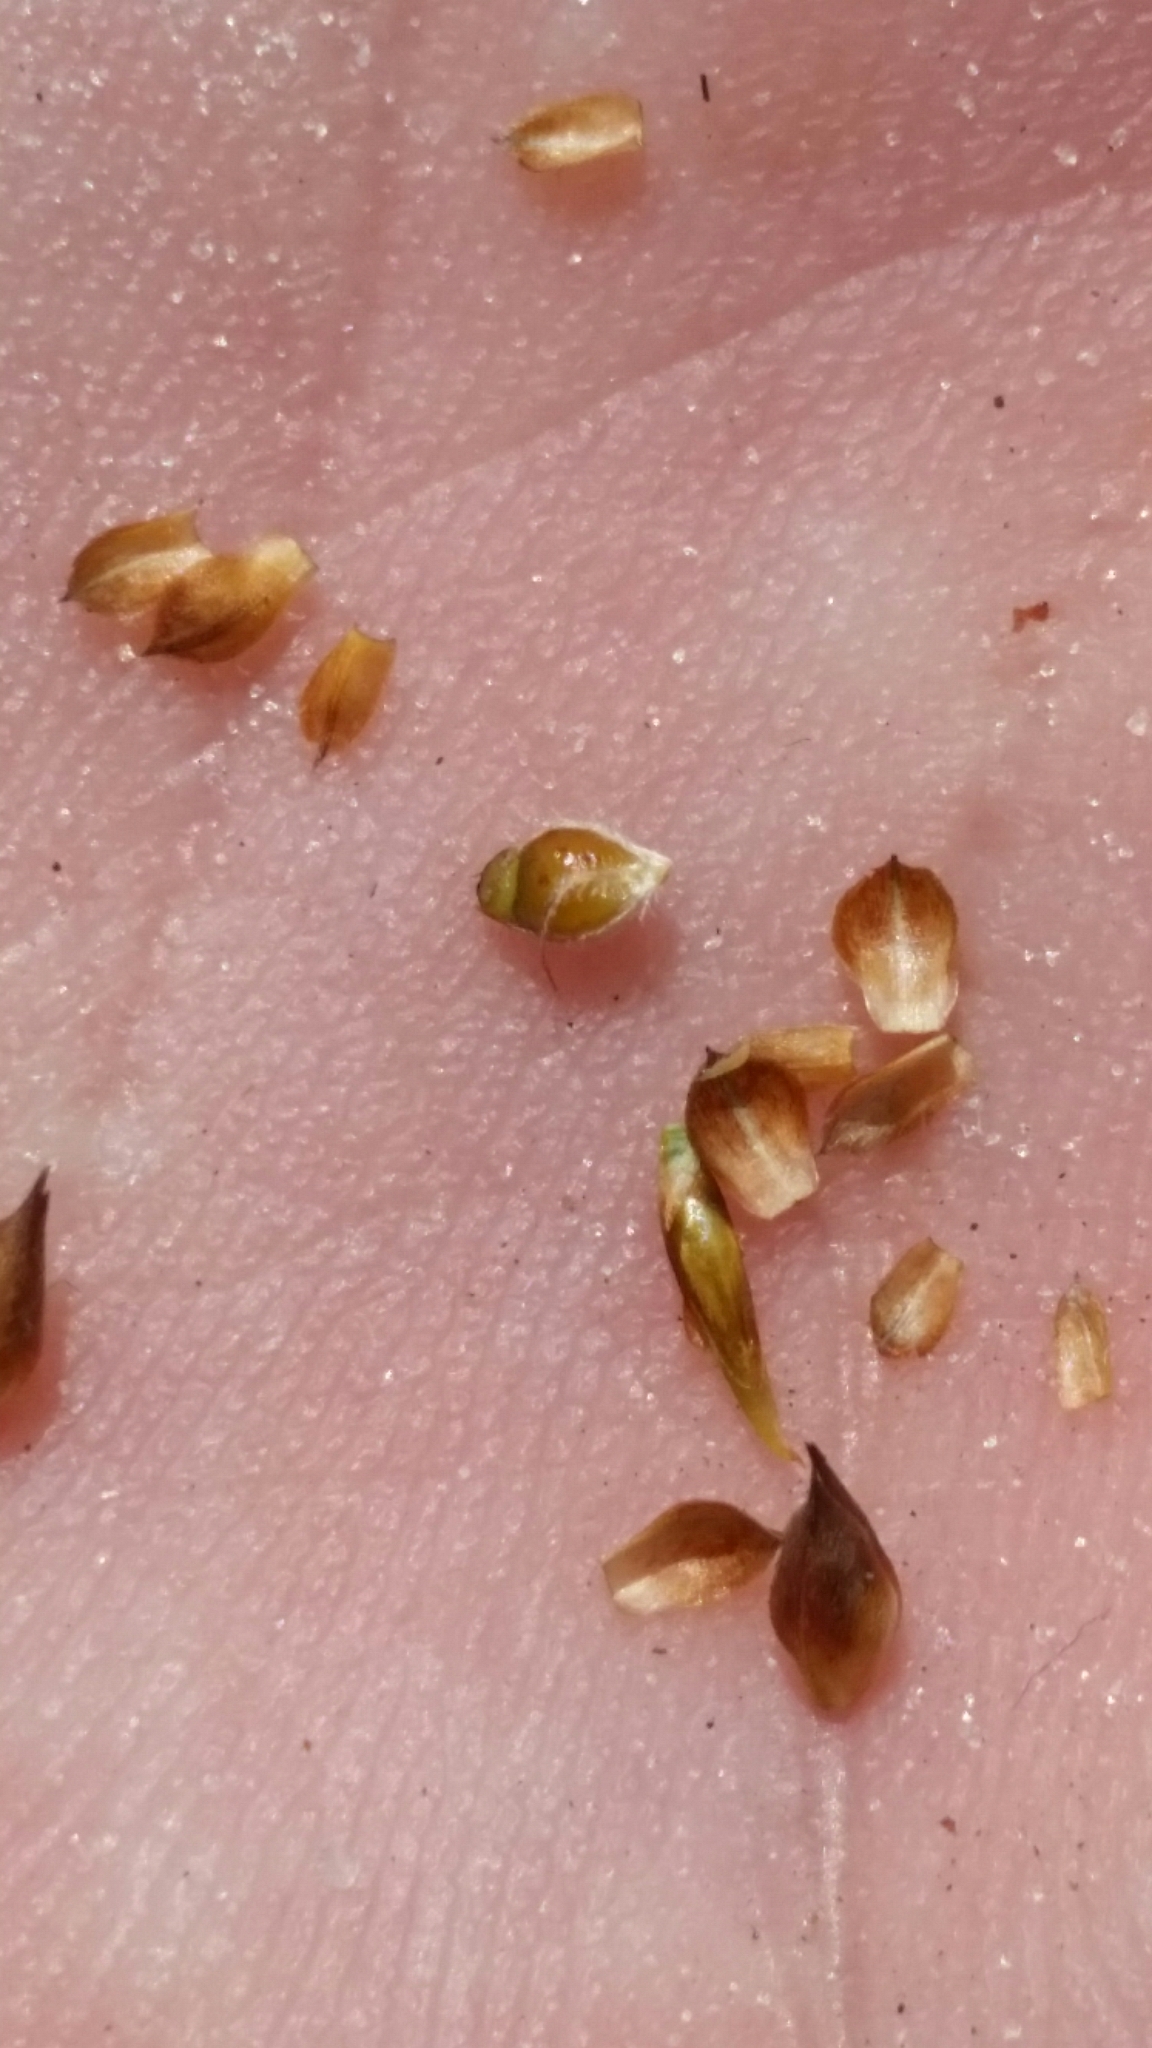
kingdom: Plantae
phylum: Tracheophyta
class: Liliopsida
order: Poales
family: Cyperaceae
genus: Rhynchospora
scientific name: Rhynchospora intermedia
